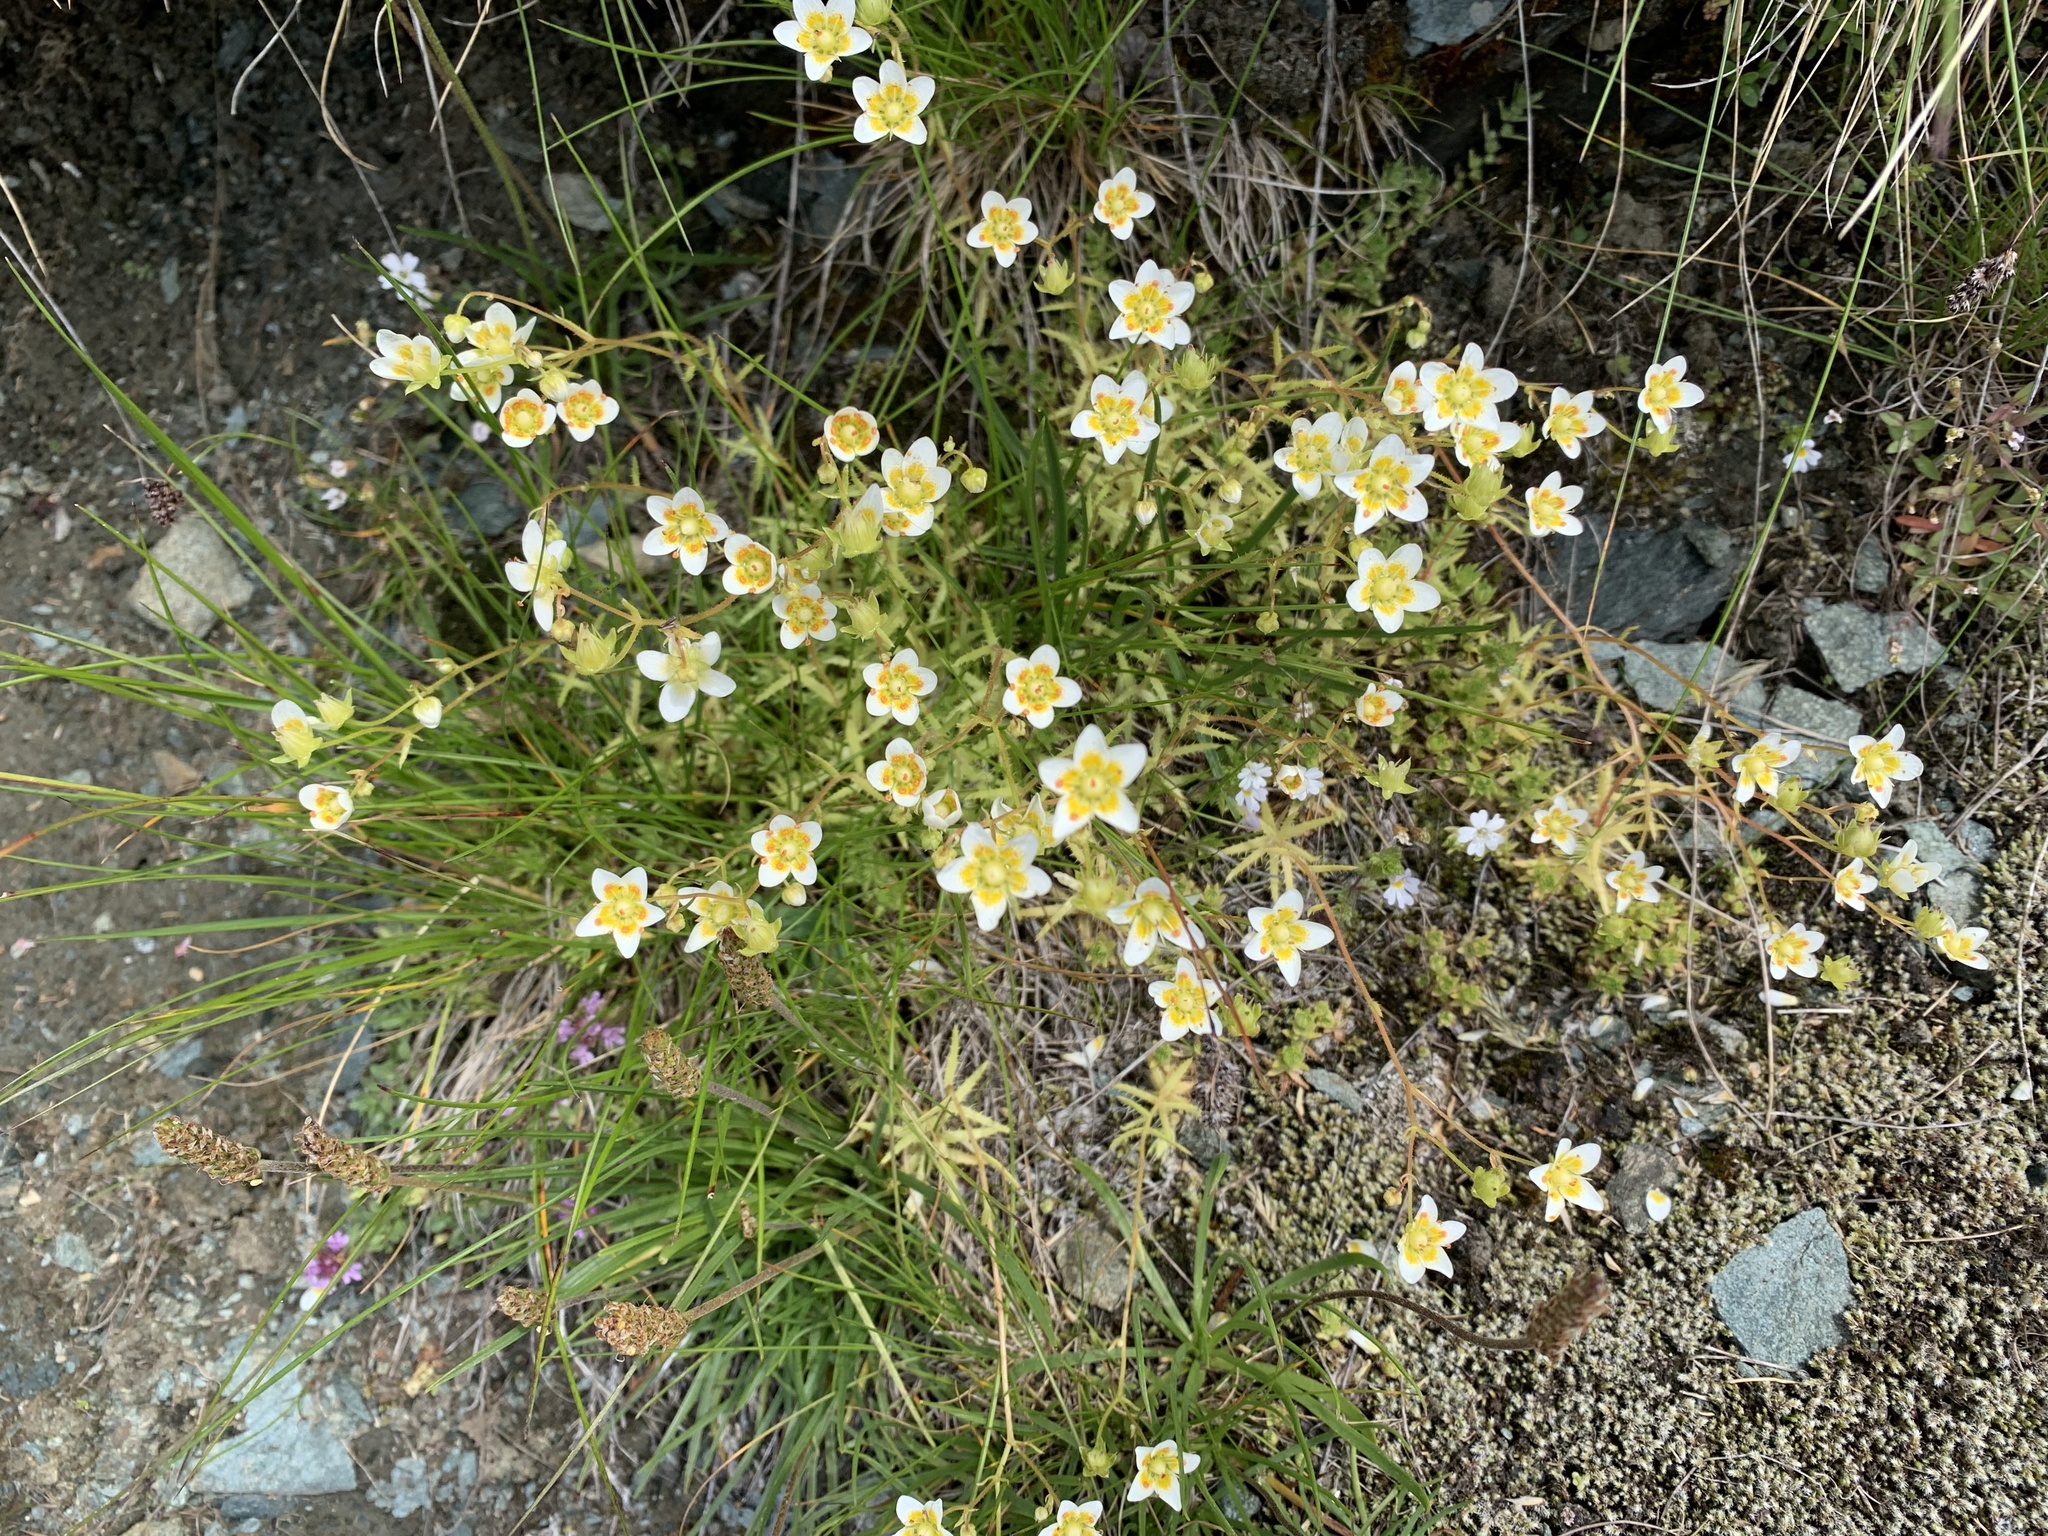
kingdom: Plantae
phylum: Tracheophyta
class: Magnoliopsida
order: Saxifragales
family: Saxifragaceae
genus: Saxifraga
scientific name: Saxifraga aspera
